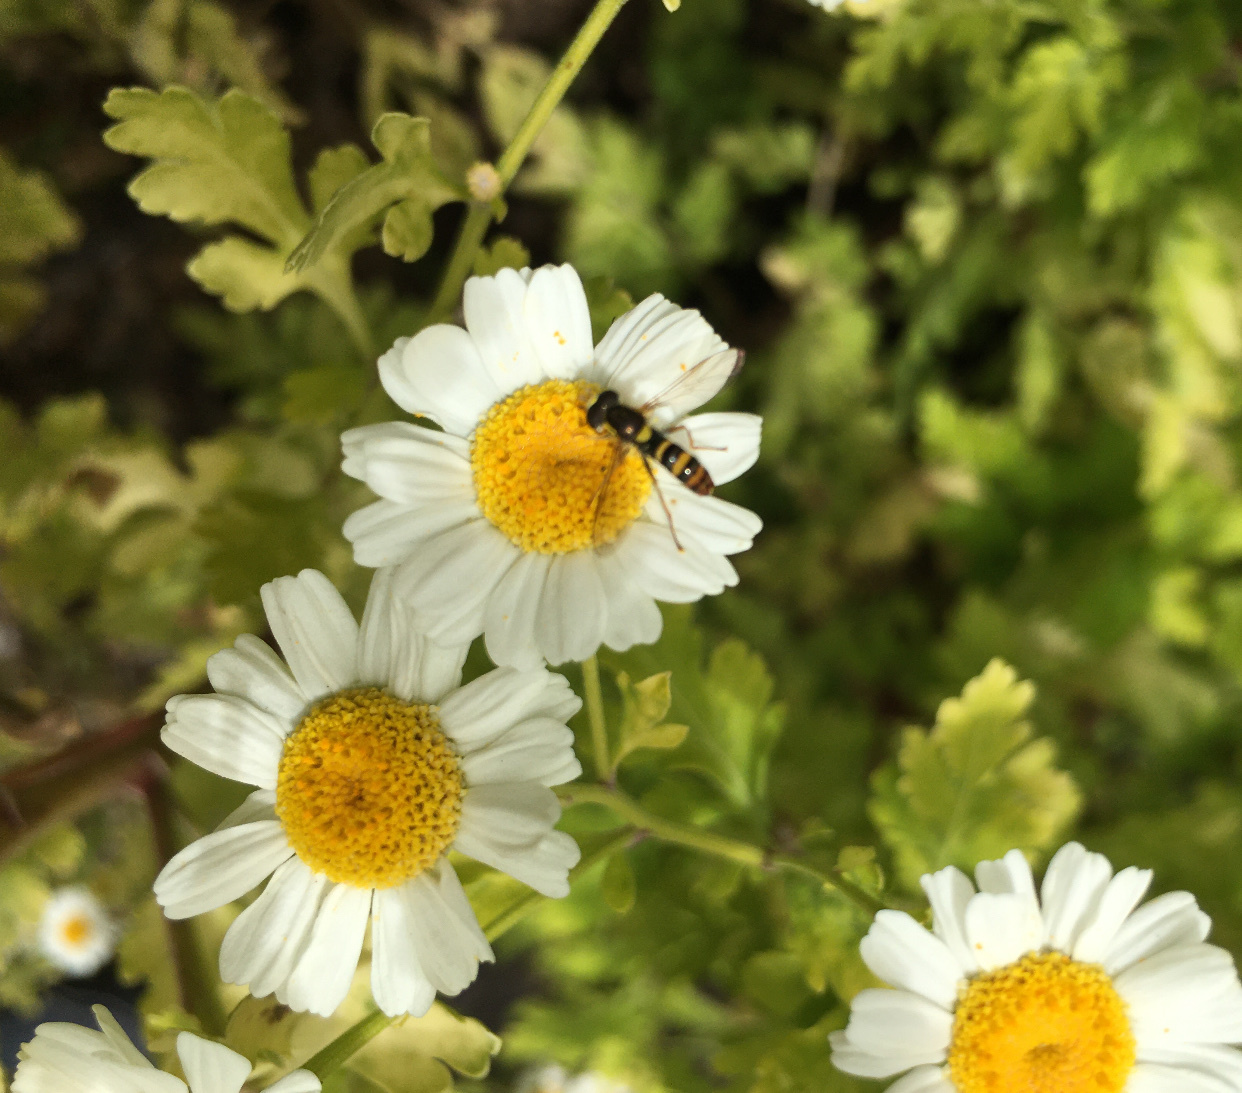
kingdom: Animalia
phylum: Arthropoda
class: Insecta
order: Diptera
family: Syrphidae
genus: Sphaerophoria
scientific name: Sphaerophoria sulphuripes
